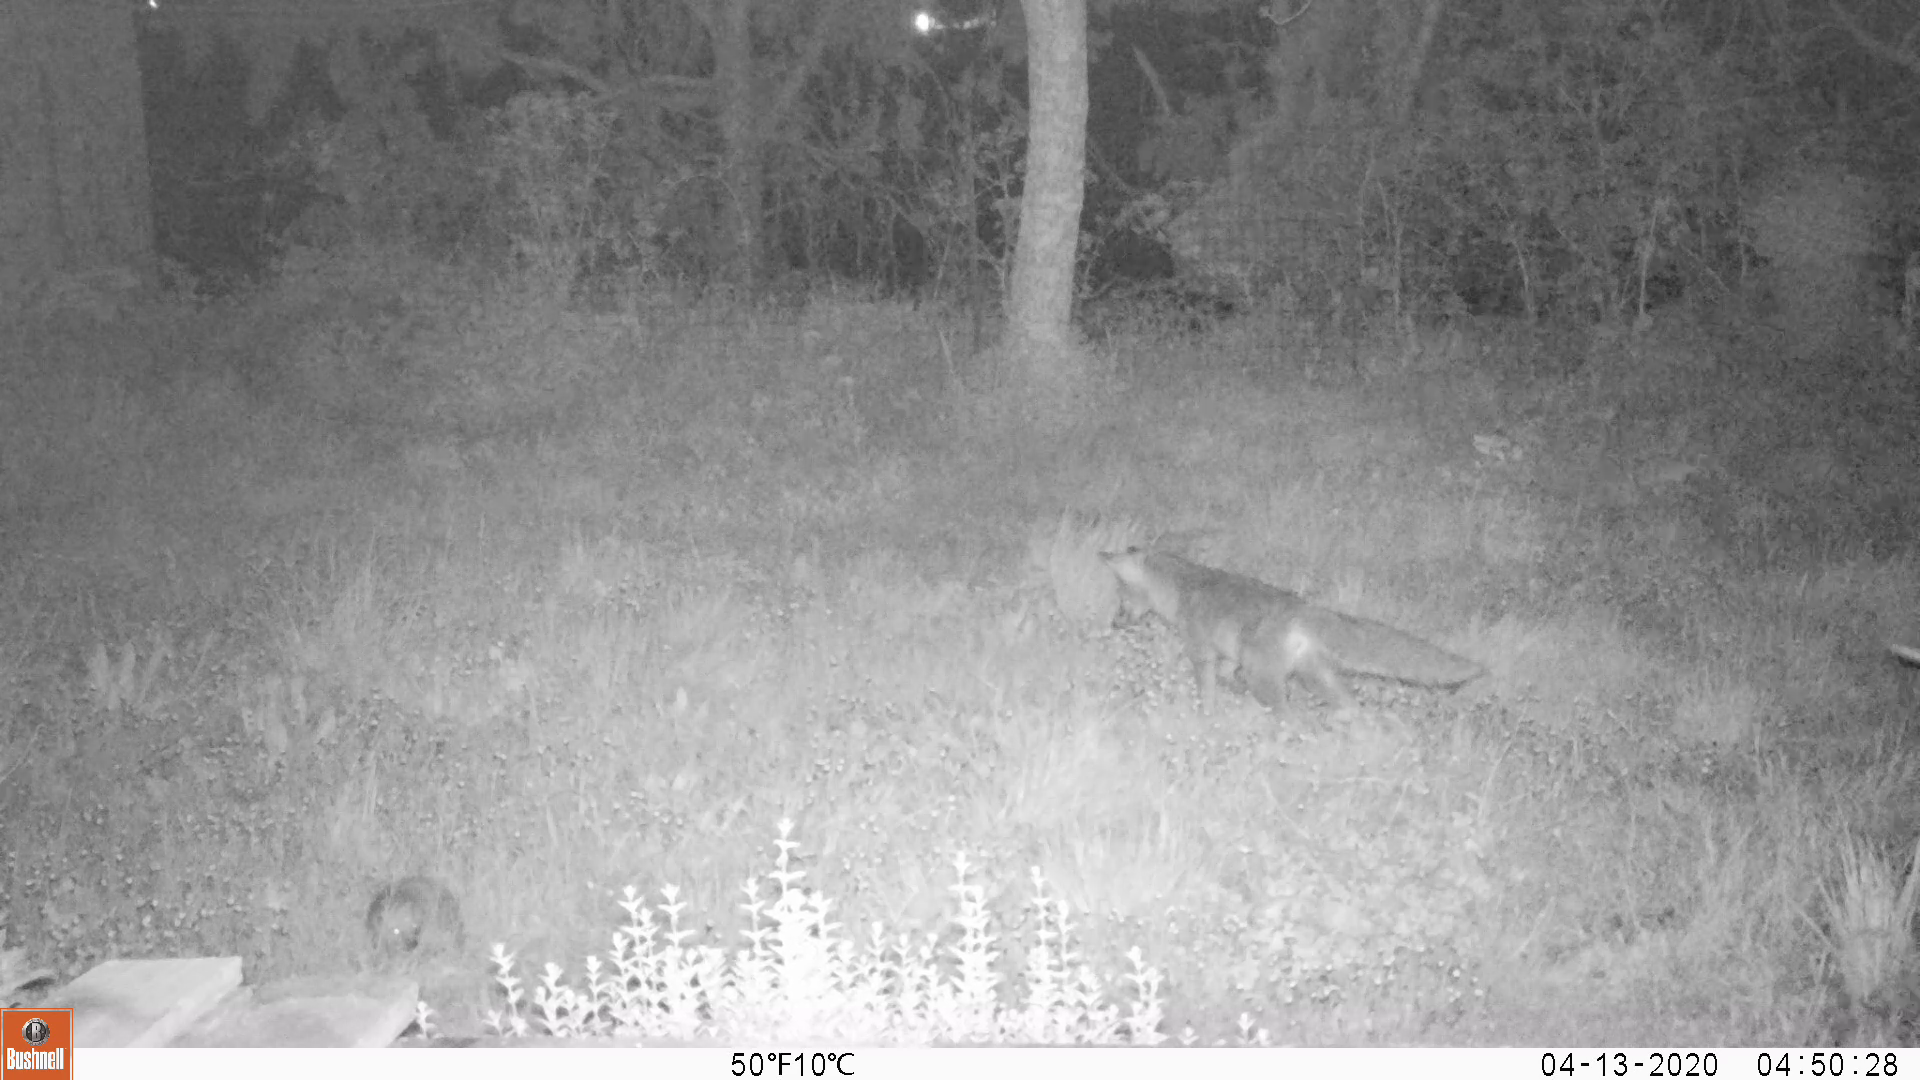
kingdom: Animalia
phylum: Chordata
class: Mammalia
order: Carnivora
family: Canidae
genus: Vulpes
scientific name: Vulpes vulpes
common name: Red fox
